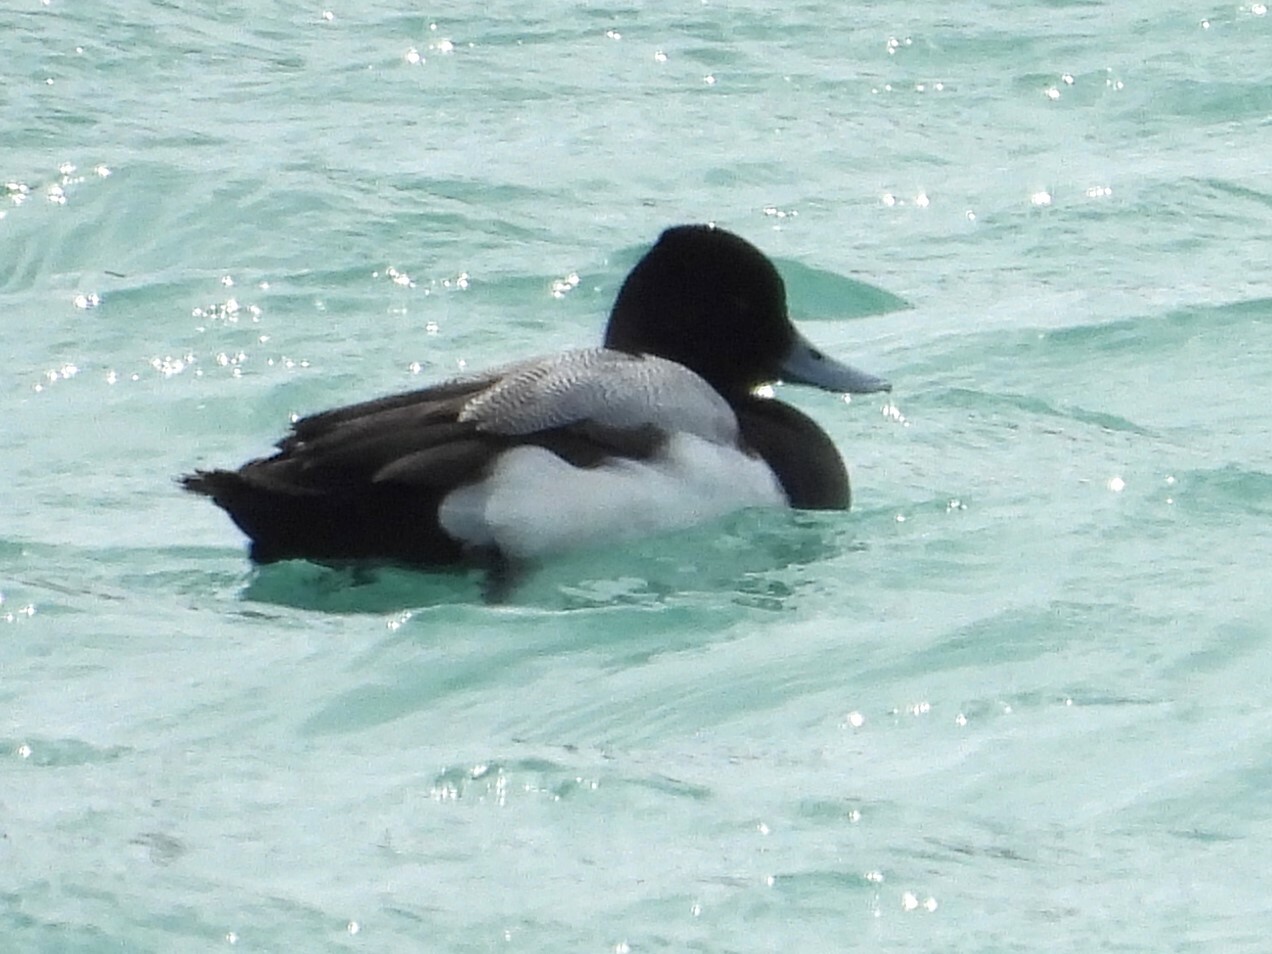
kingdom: Animalia
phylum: Chordata
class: Aves
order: Anseriformes
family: Anatidae
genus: Aythya
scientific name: Aythya affinis
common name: Lesser scaup
